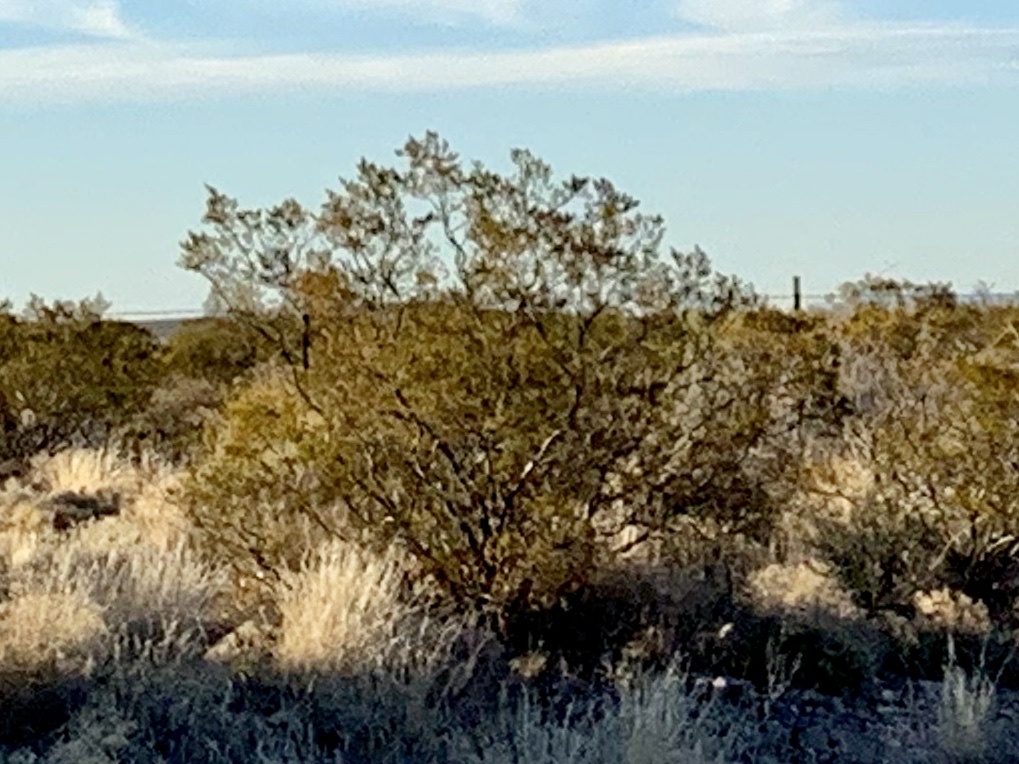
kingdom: Plantae
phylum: Tracheophyta
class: Magnoliopsida
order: Zygophyllales
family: Zygophyllaceae
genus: Larrea
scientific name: Larrea tridentata
